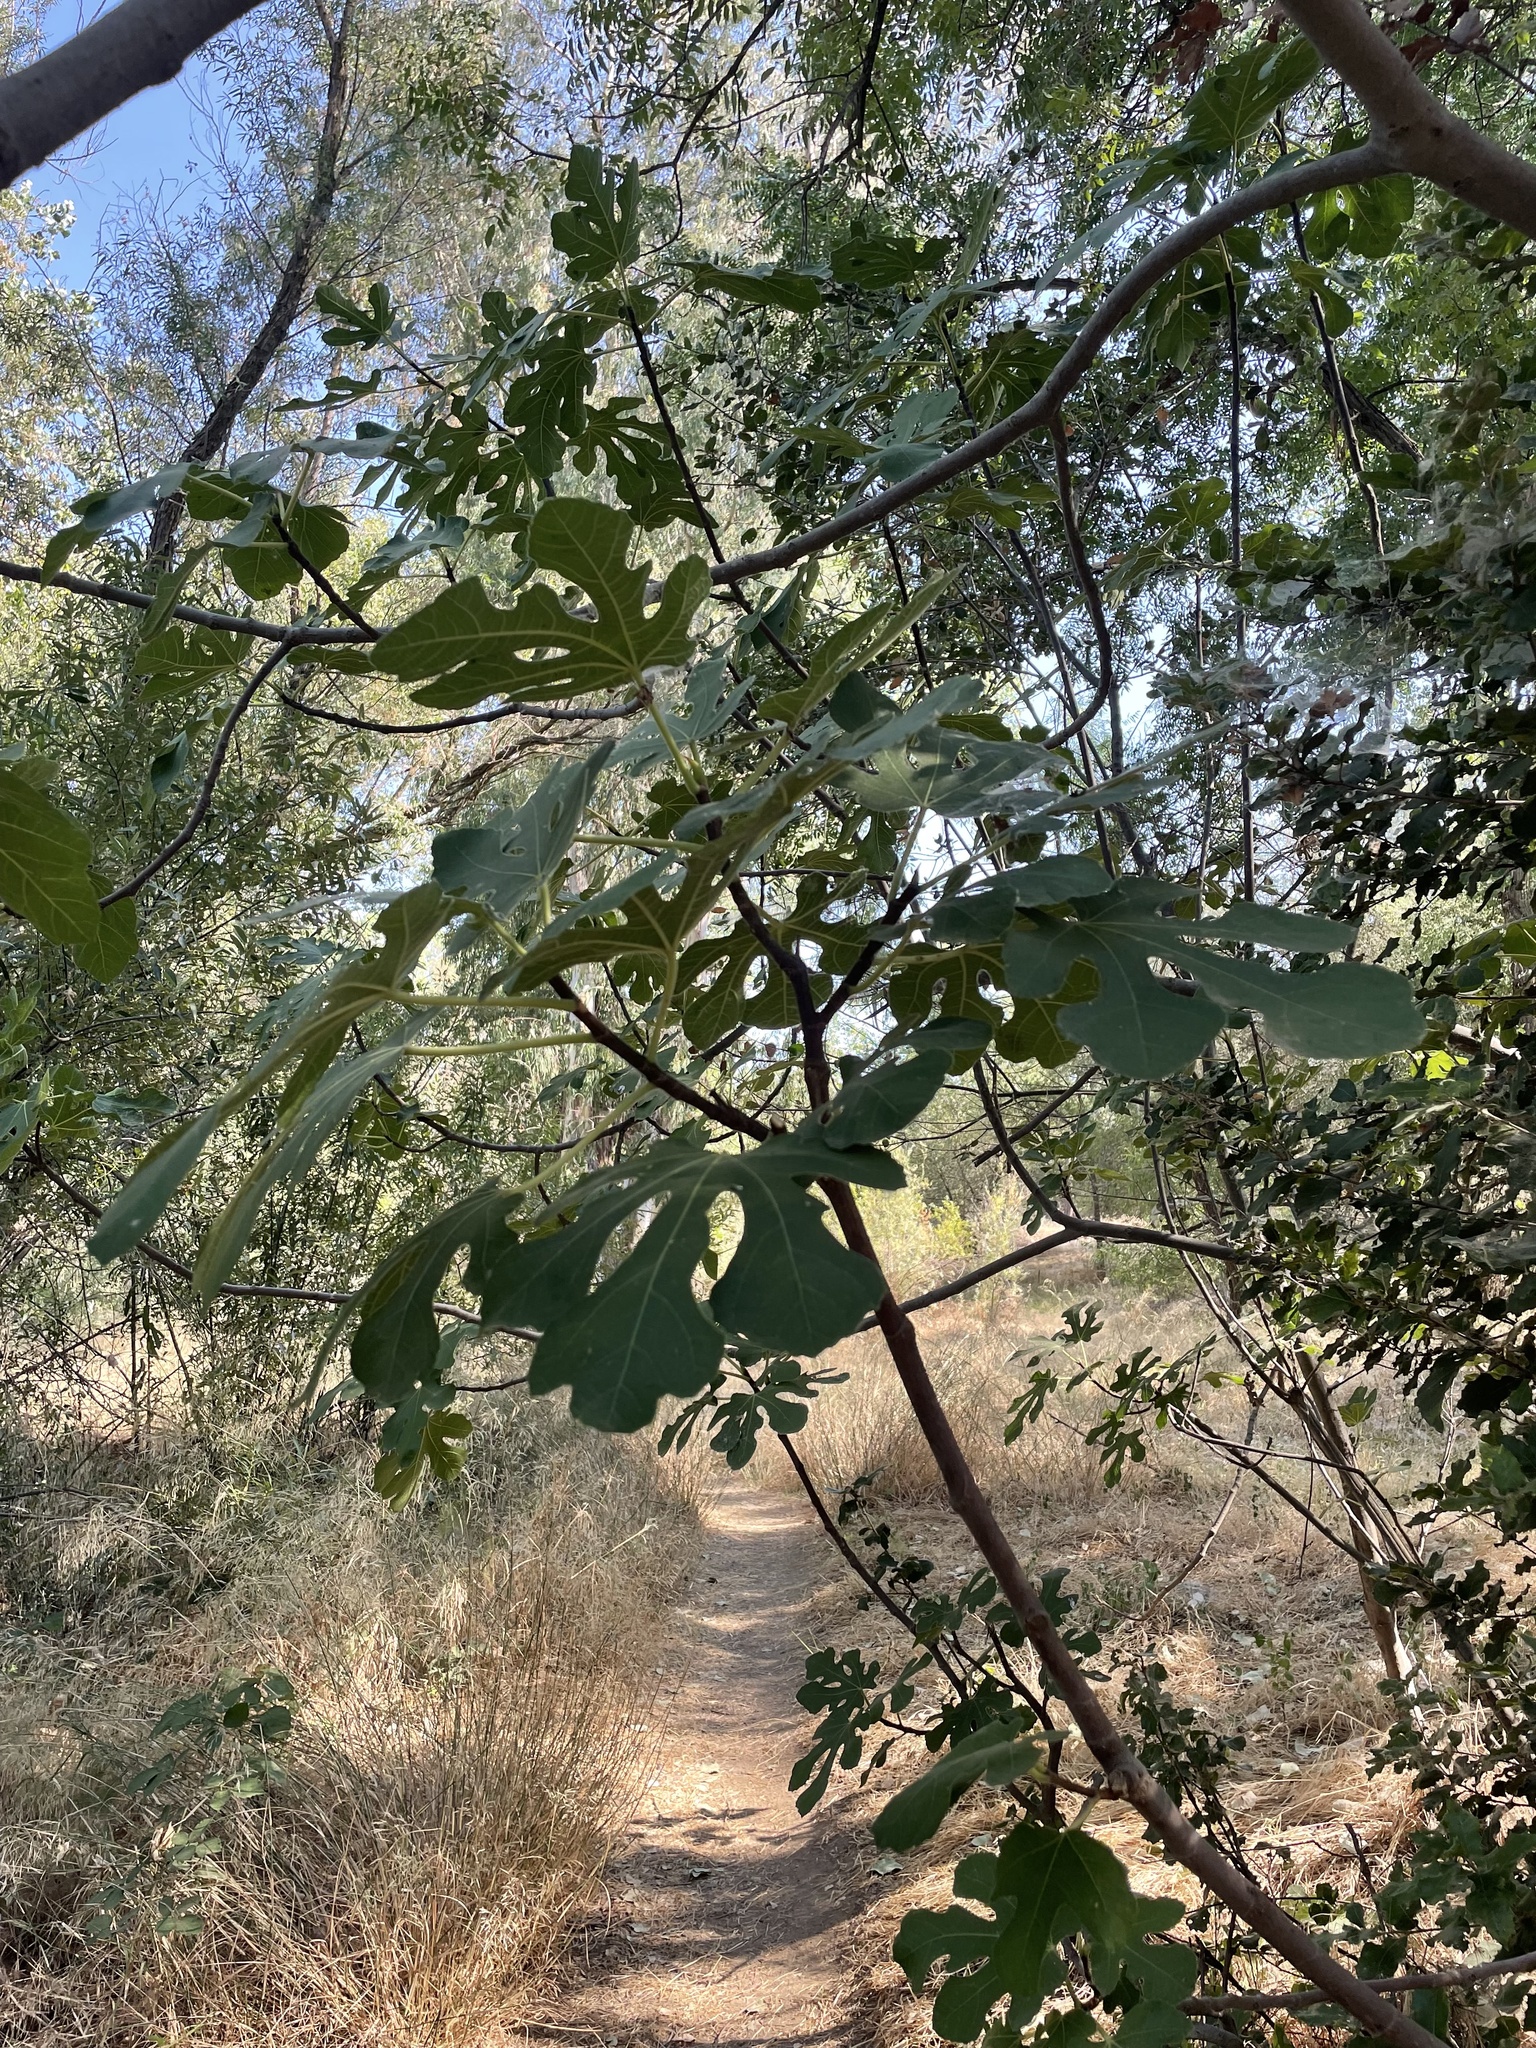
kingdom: Plantae
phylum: Tracheophyta
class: Magnoliopsida
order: Rosales
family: Moraceae
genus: Ficus
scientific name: Ficus carica
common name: Fig
